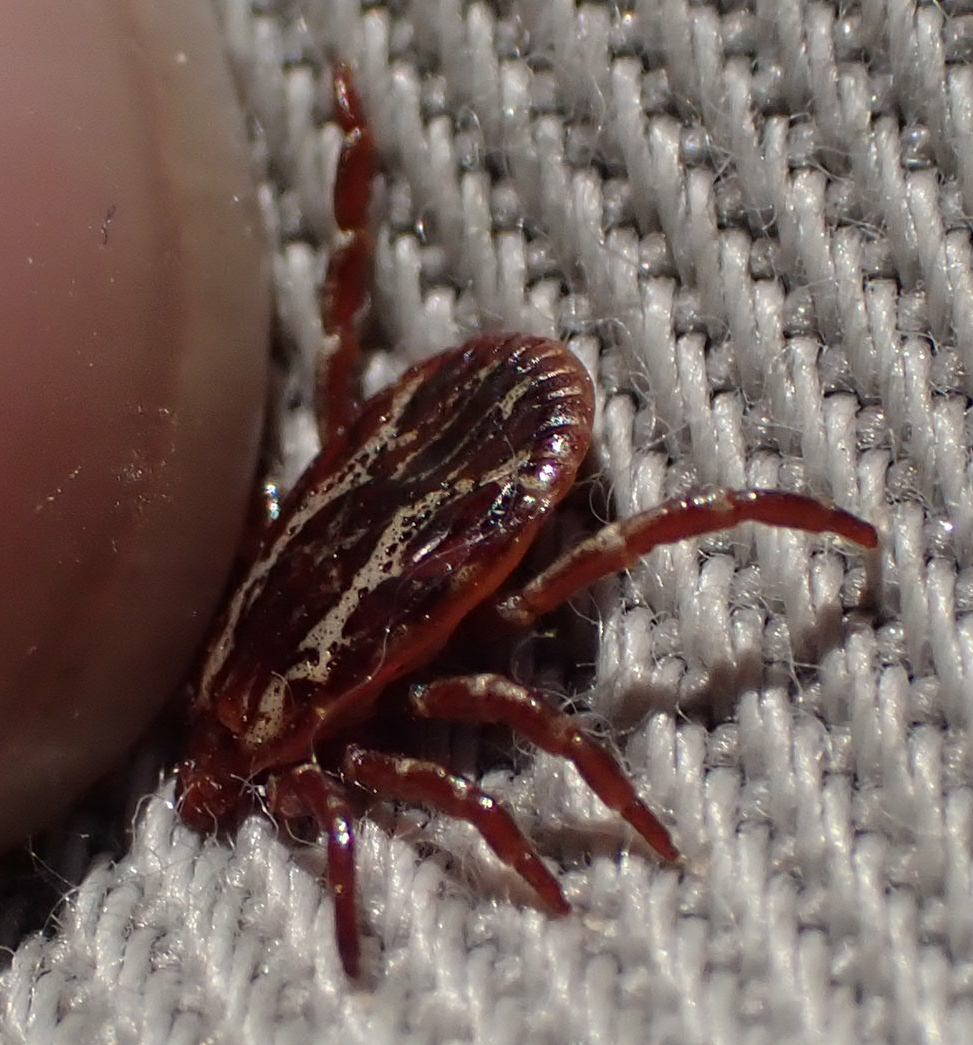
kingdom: Animalia
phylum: Arthropoda
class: Arachnida
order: Ixodida
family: Ixodidae
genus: Dermacentor
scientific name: Dermacentor variabilis
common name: American dog tick
